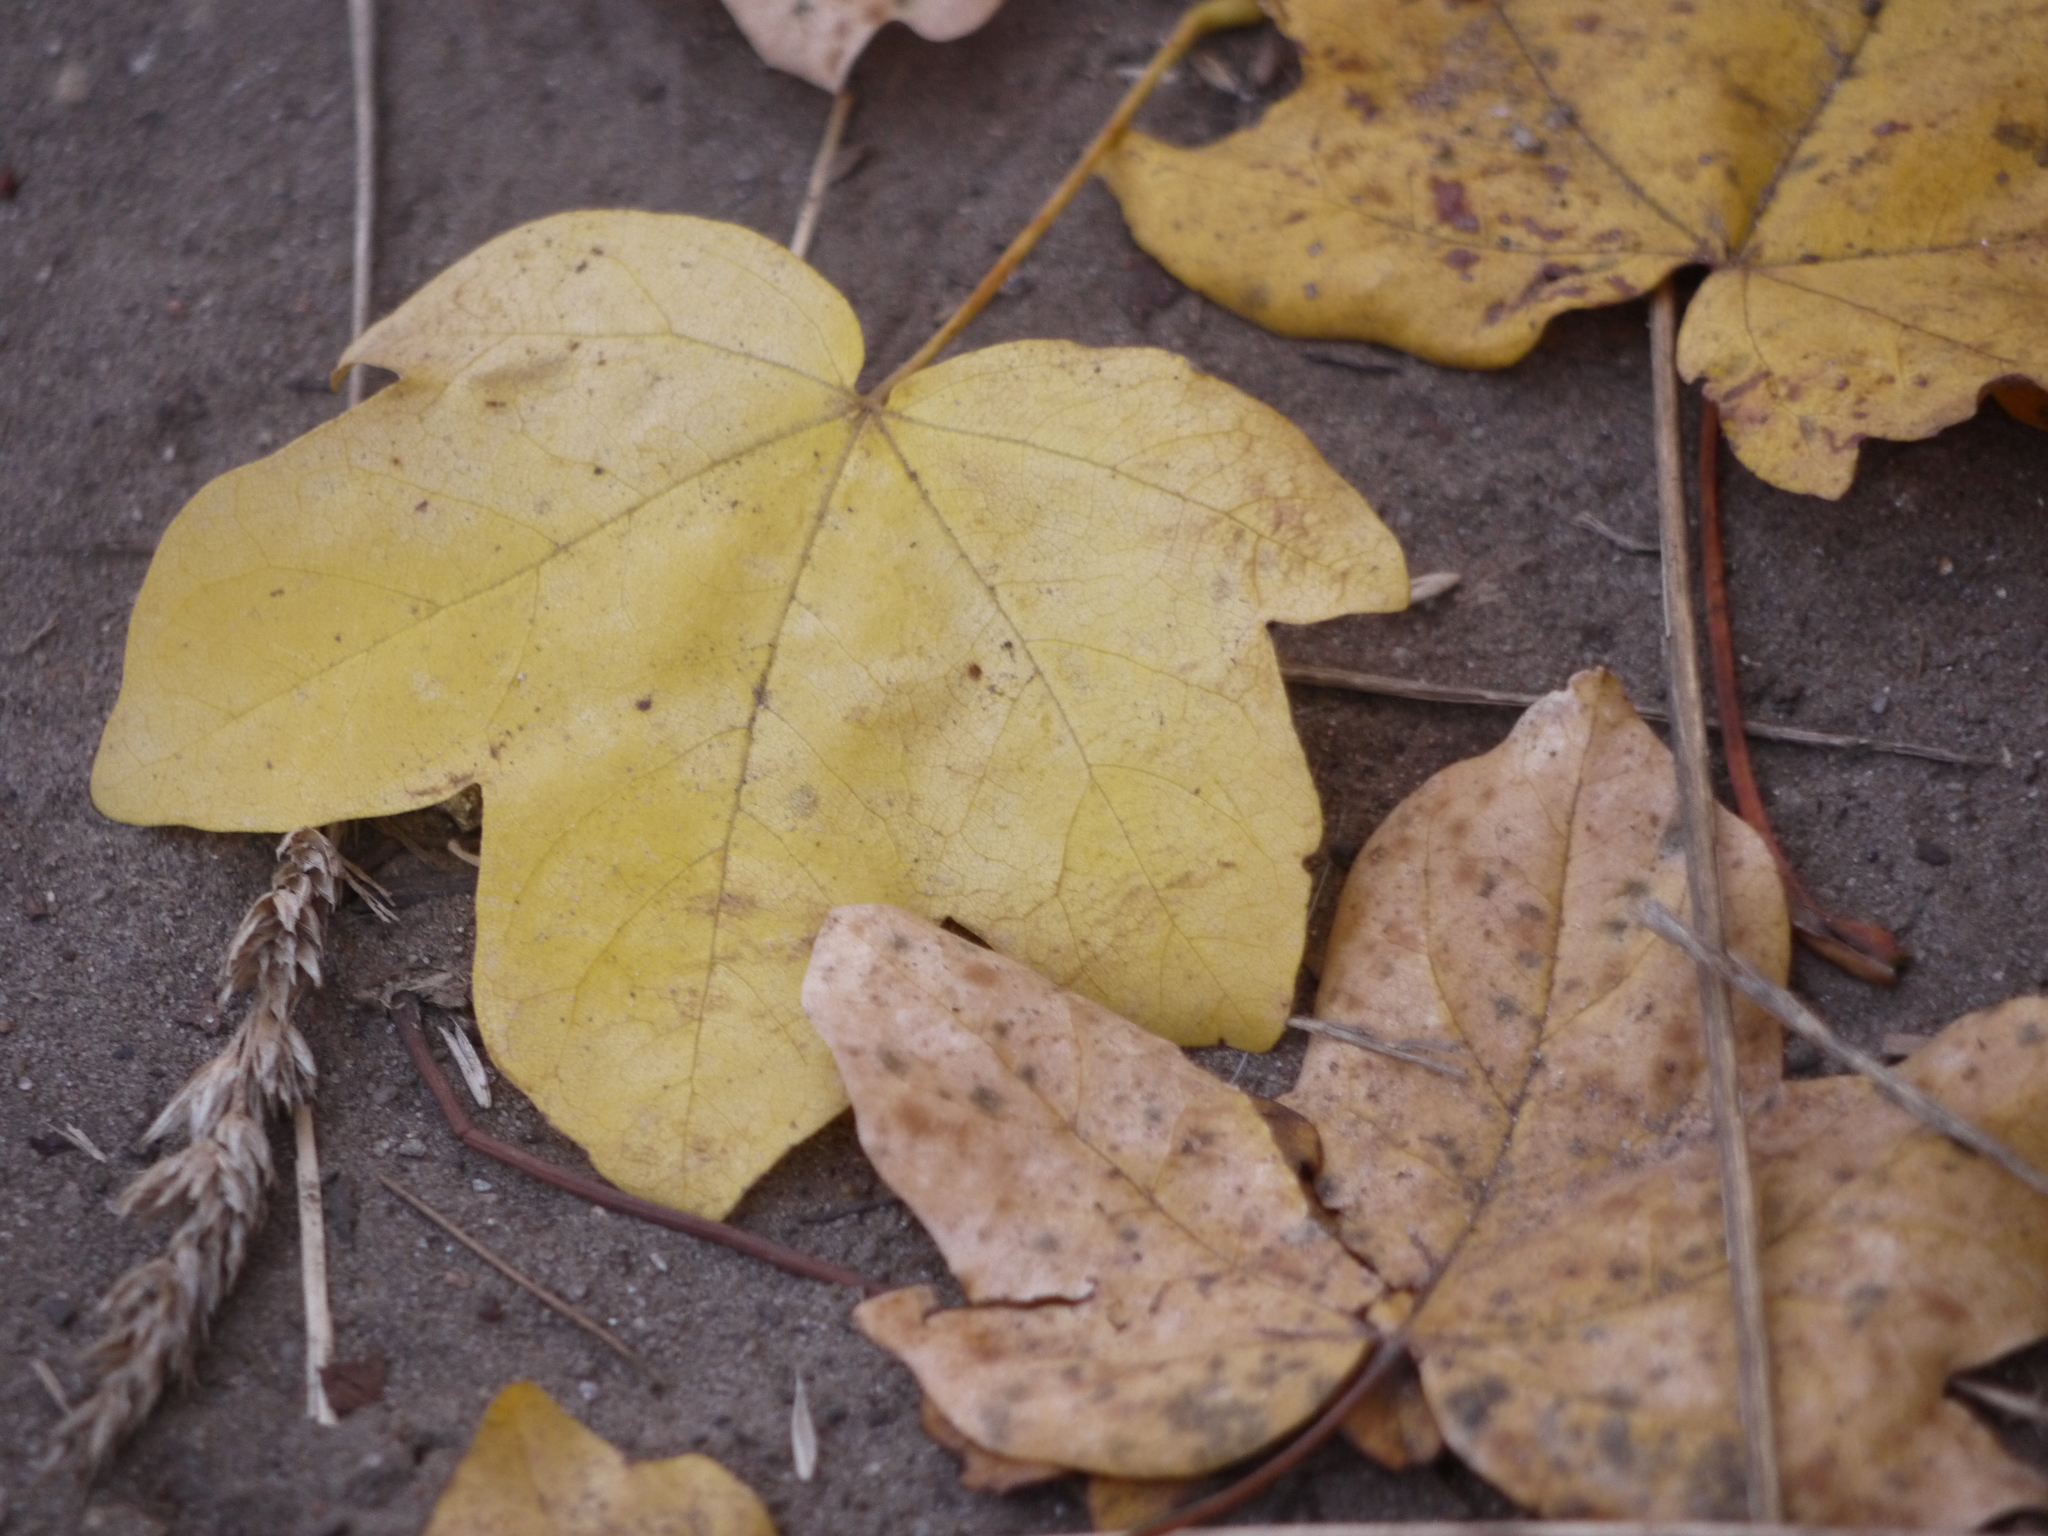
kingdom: Plantae
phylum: Tracheophyta
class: Magnoliopsida
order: Sapindales
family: Sapindaceae
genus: Acer
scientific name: Acer campestre
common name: Field maple
